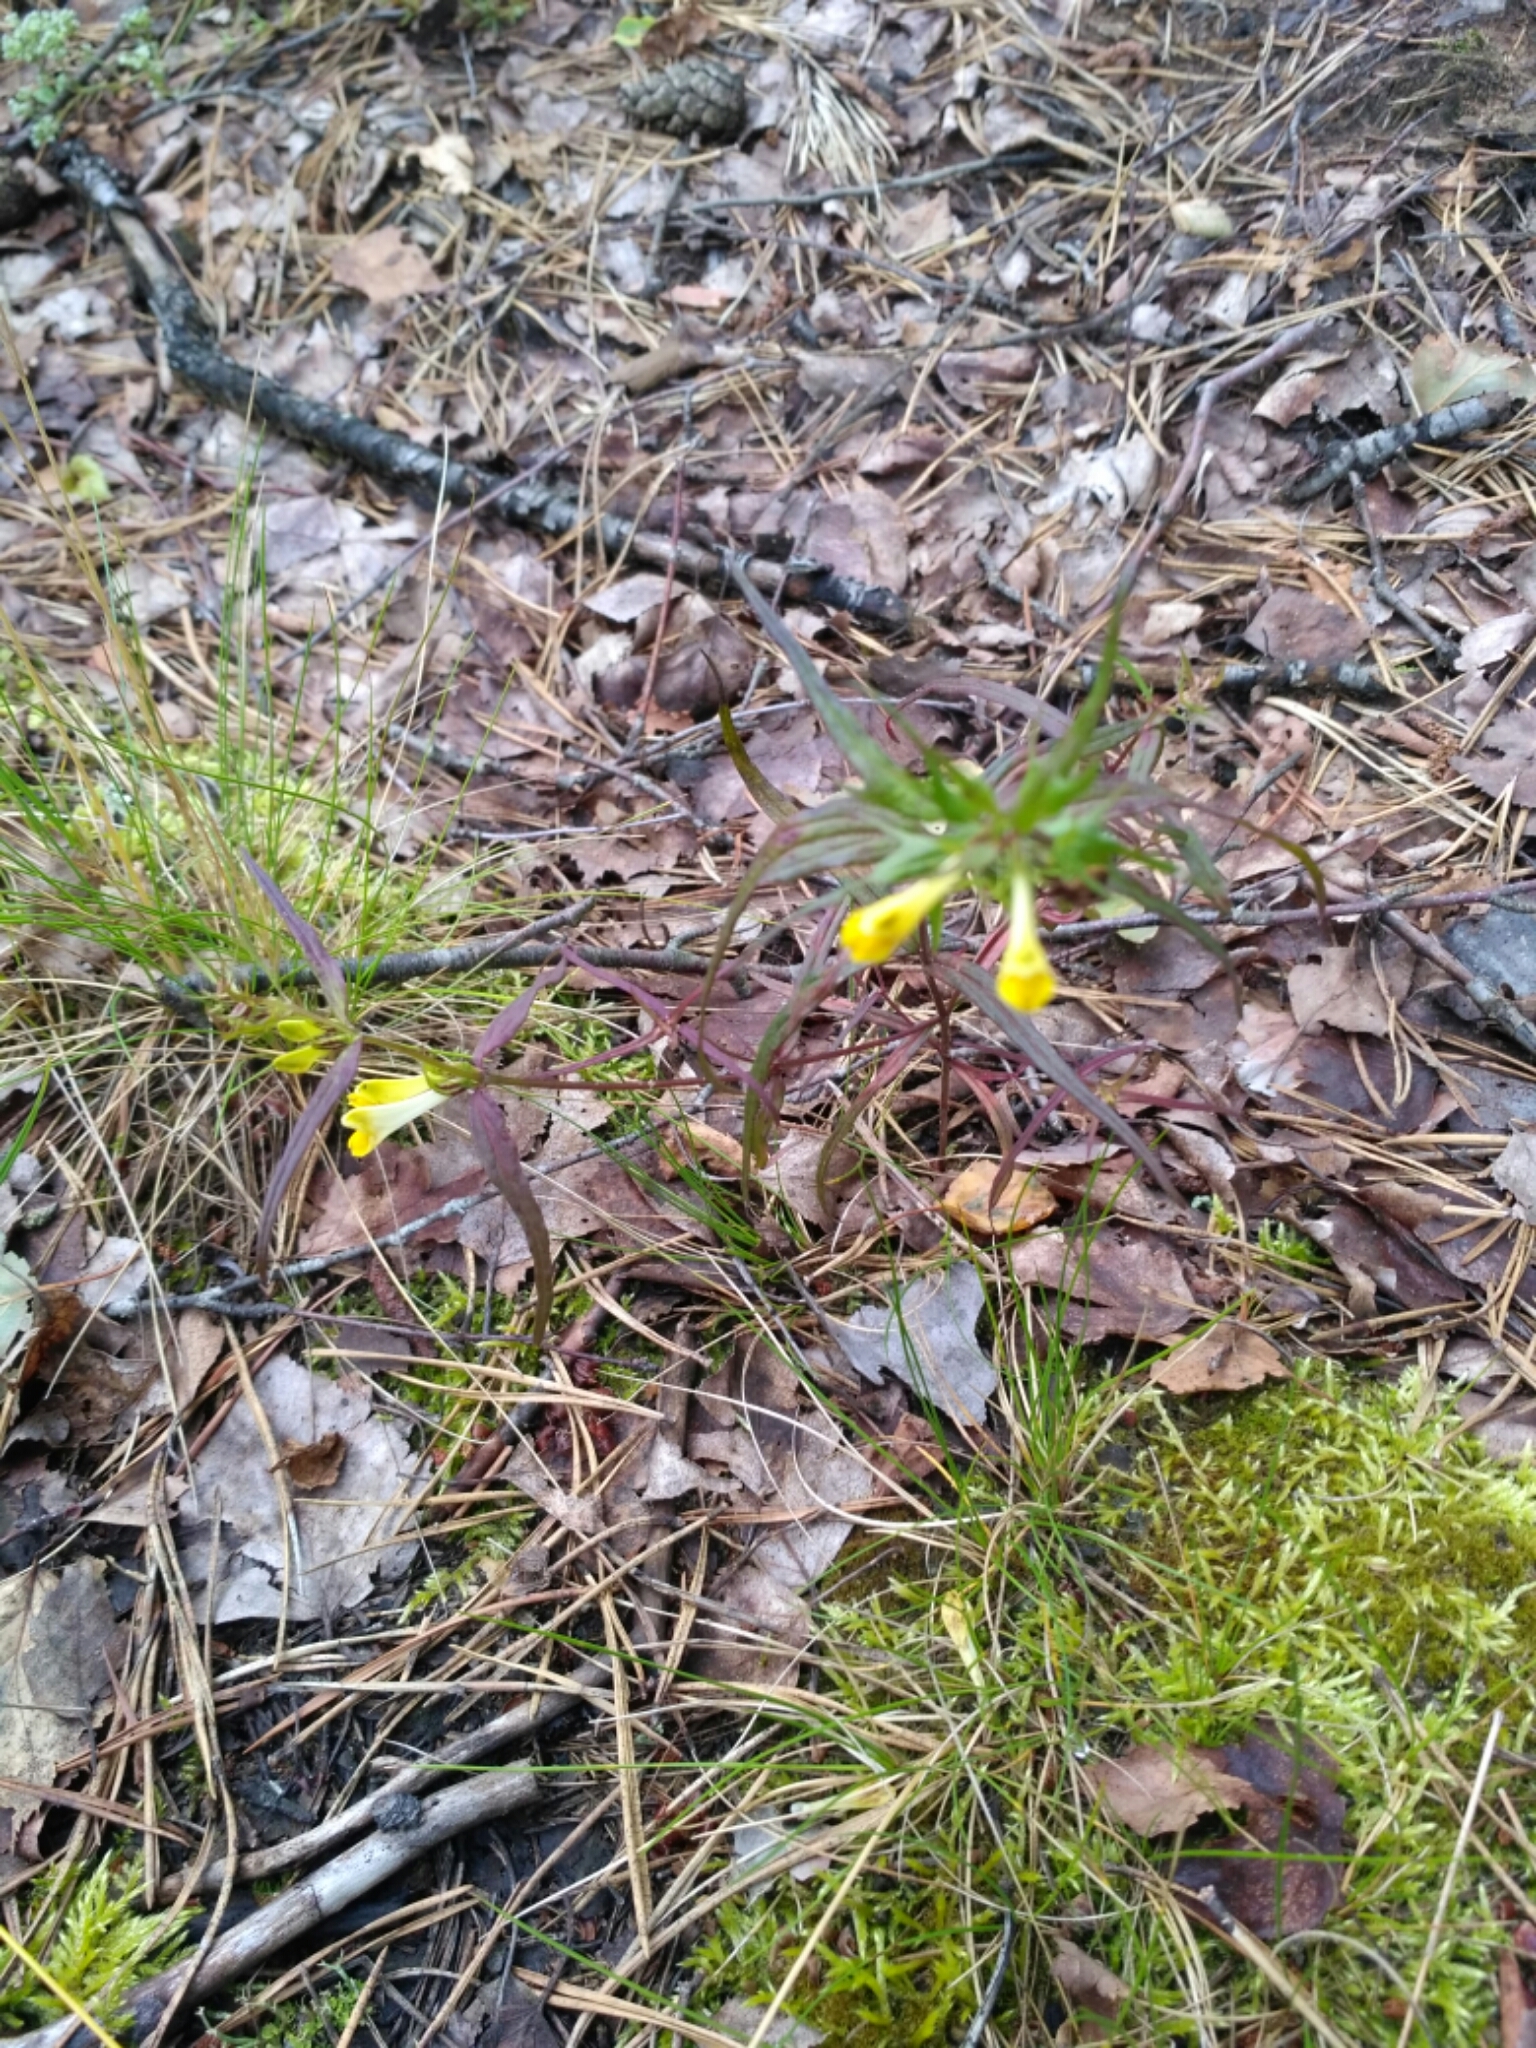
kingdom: Plantae
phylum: Tracheophyta
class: Magnoliopsida
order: Lamiales
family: Orobanchaceae
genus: Melampyrum
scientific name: Melampyrum pratense
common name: Common cow-wheat
